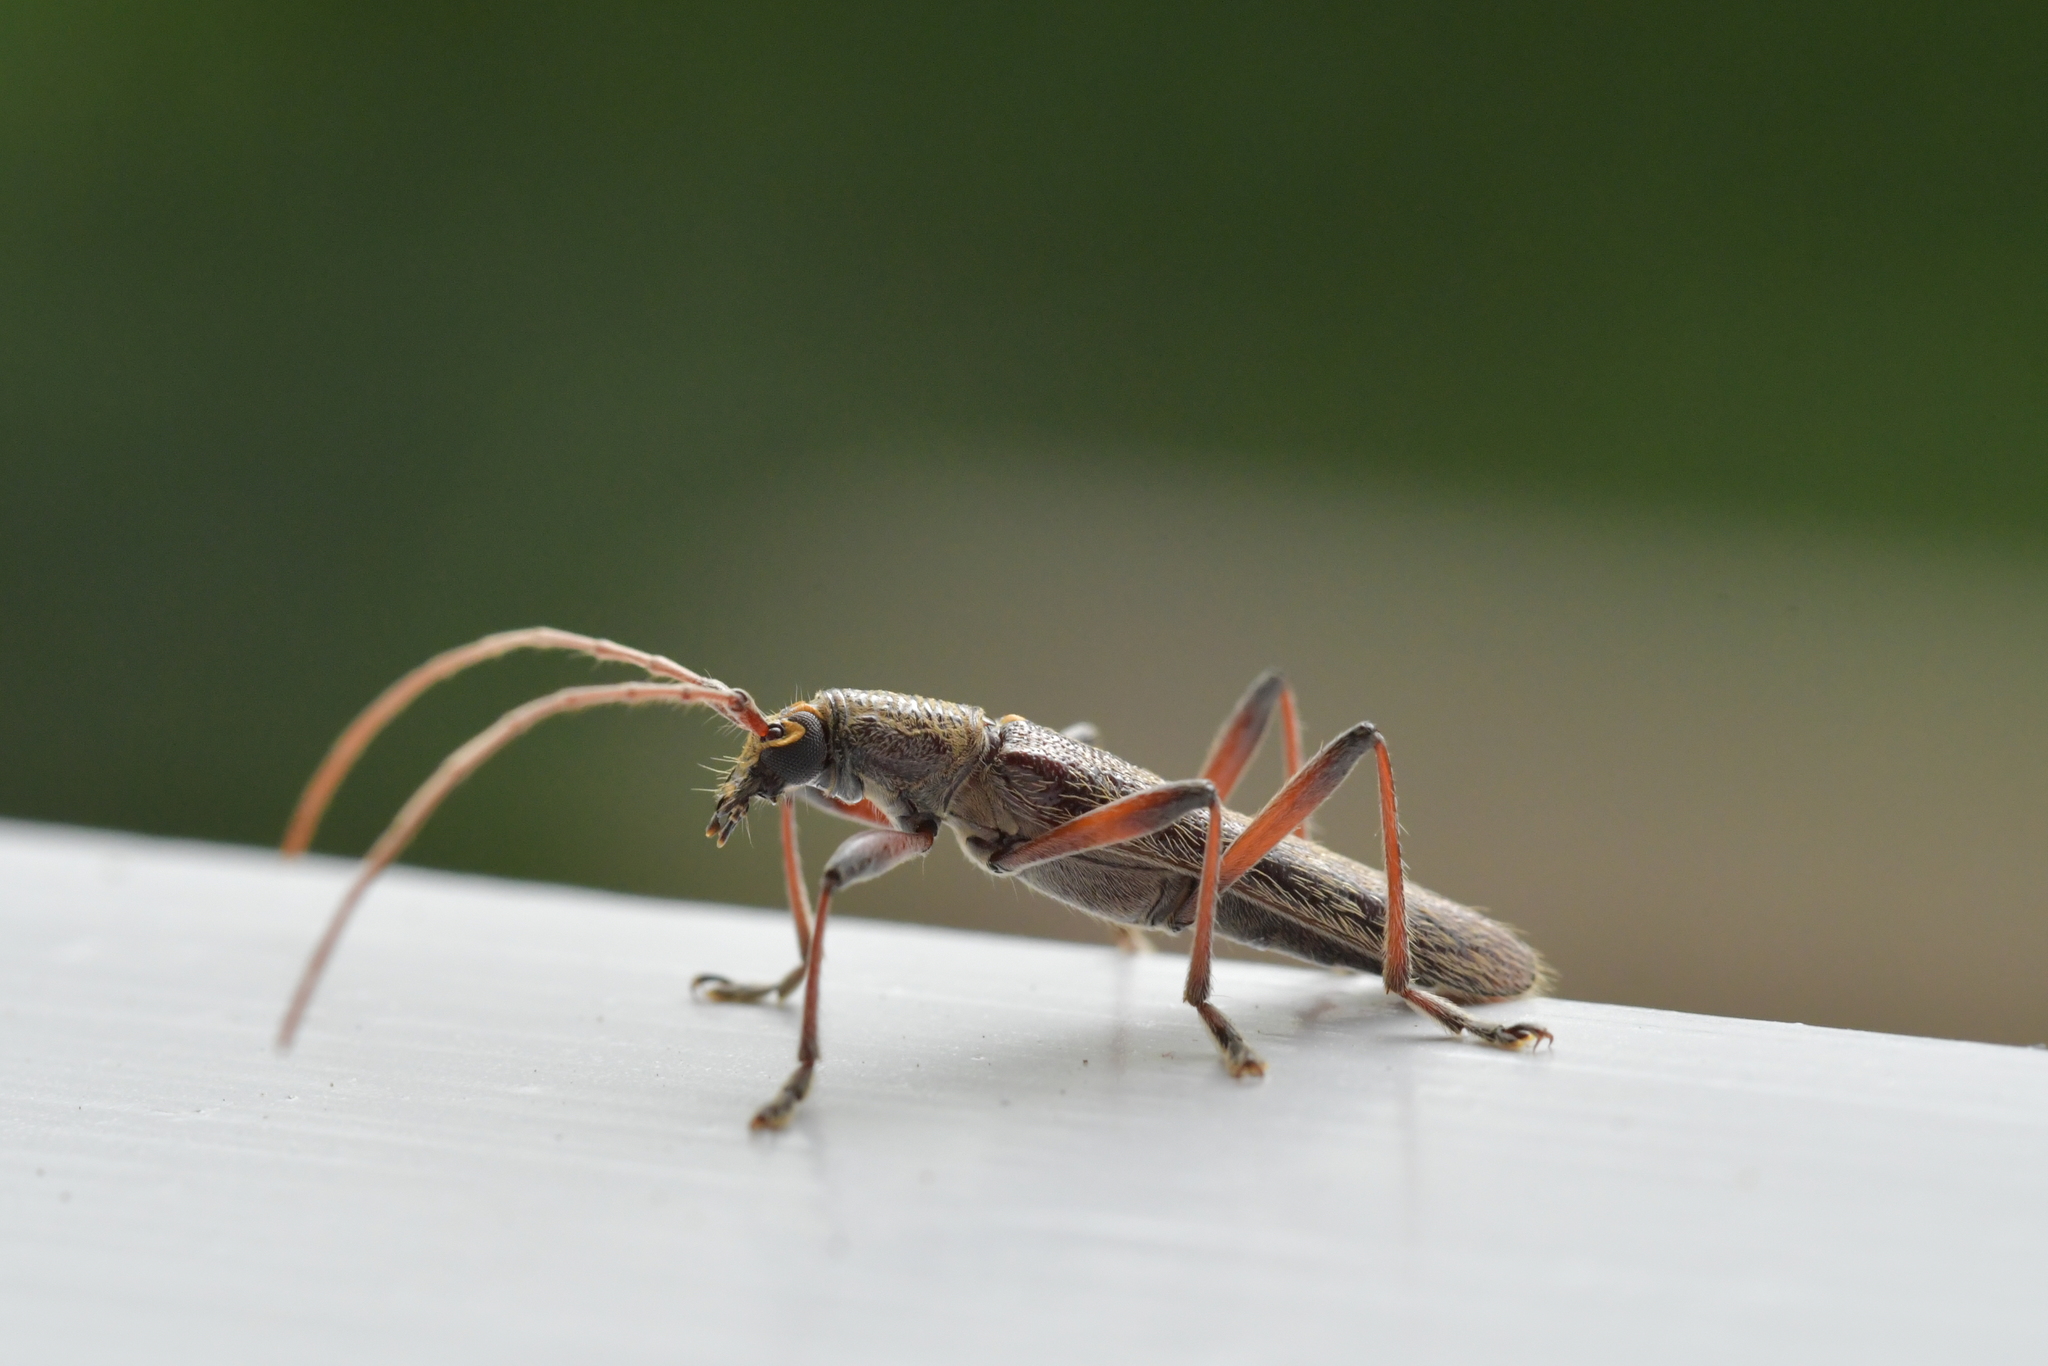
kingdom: Animalia
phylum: Arthropoda
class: Insecta
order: Coleoptera
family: Cerambycidae
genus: Oemona
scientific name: Oemona hirta
